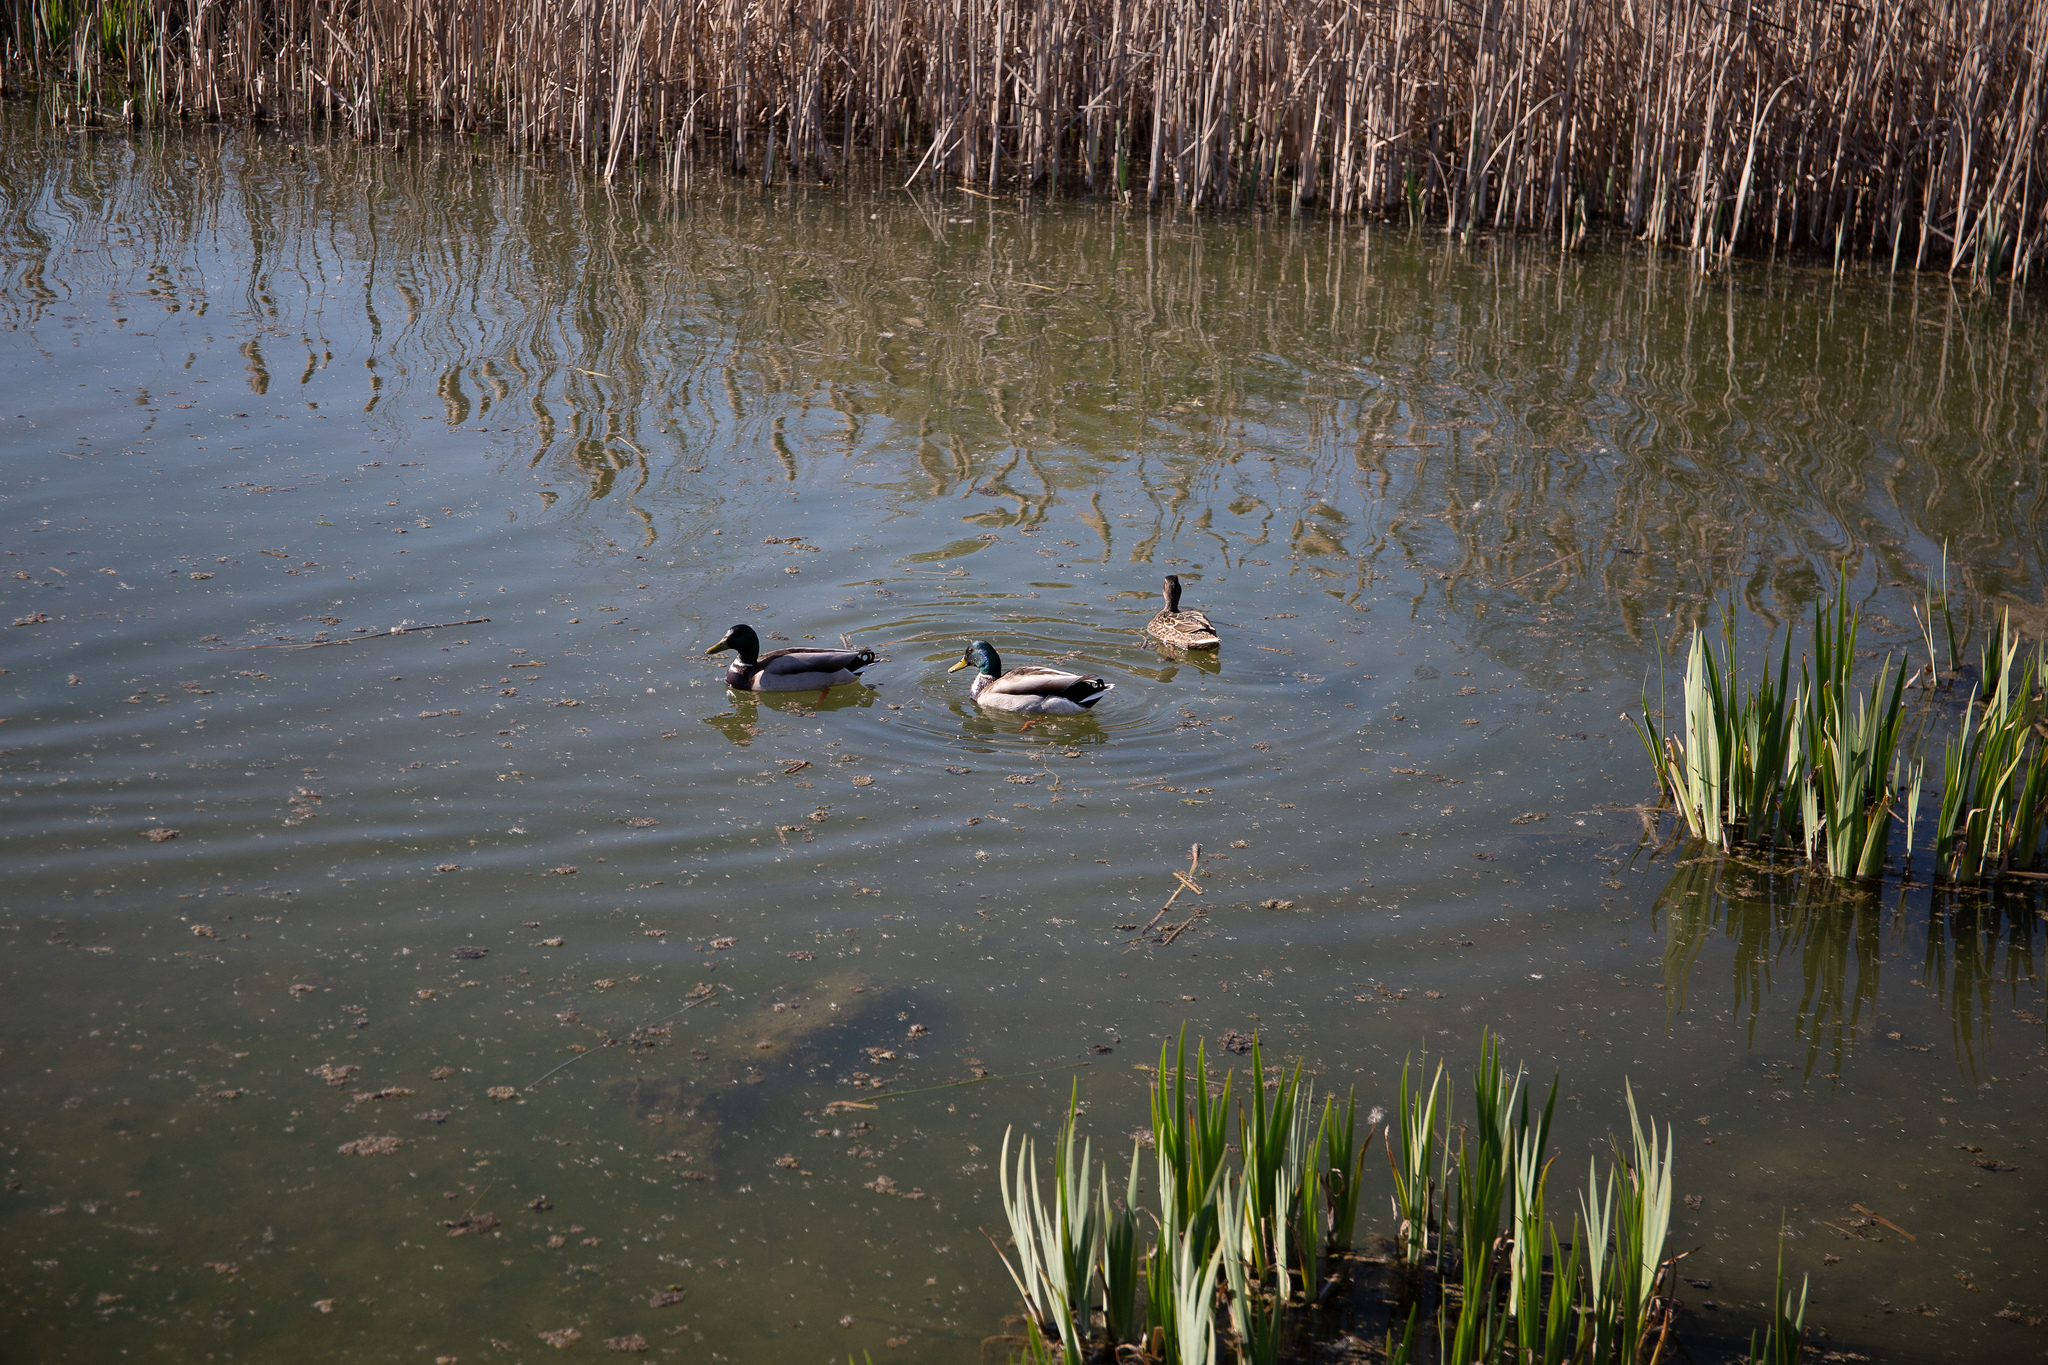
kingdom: Animalia
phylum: Chordata
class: Aves
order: Anseriformes
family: Anatidae
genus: Anas
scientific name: Anas platyrhynchos
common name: Mallard
